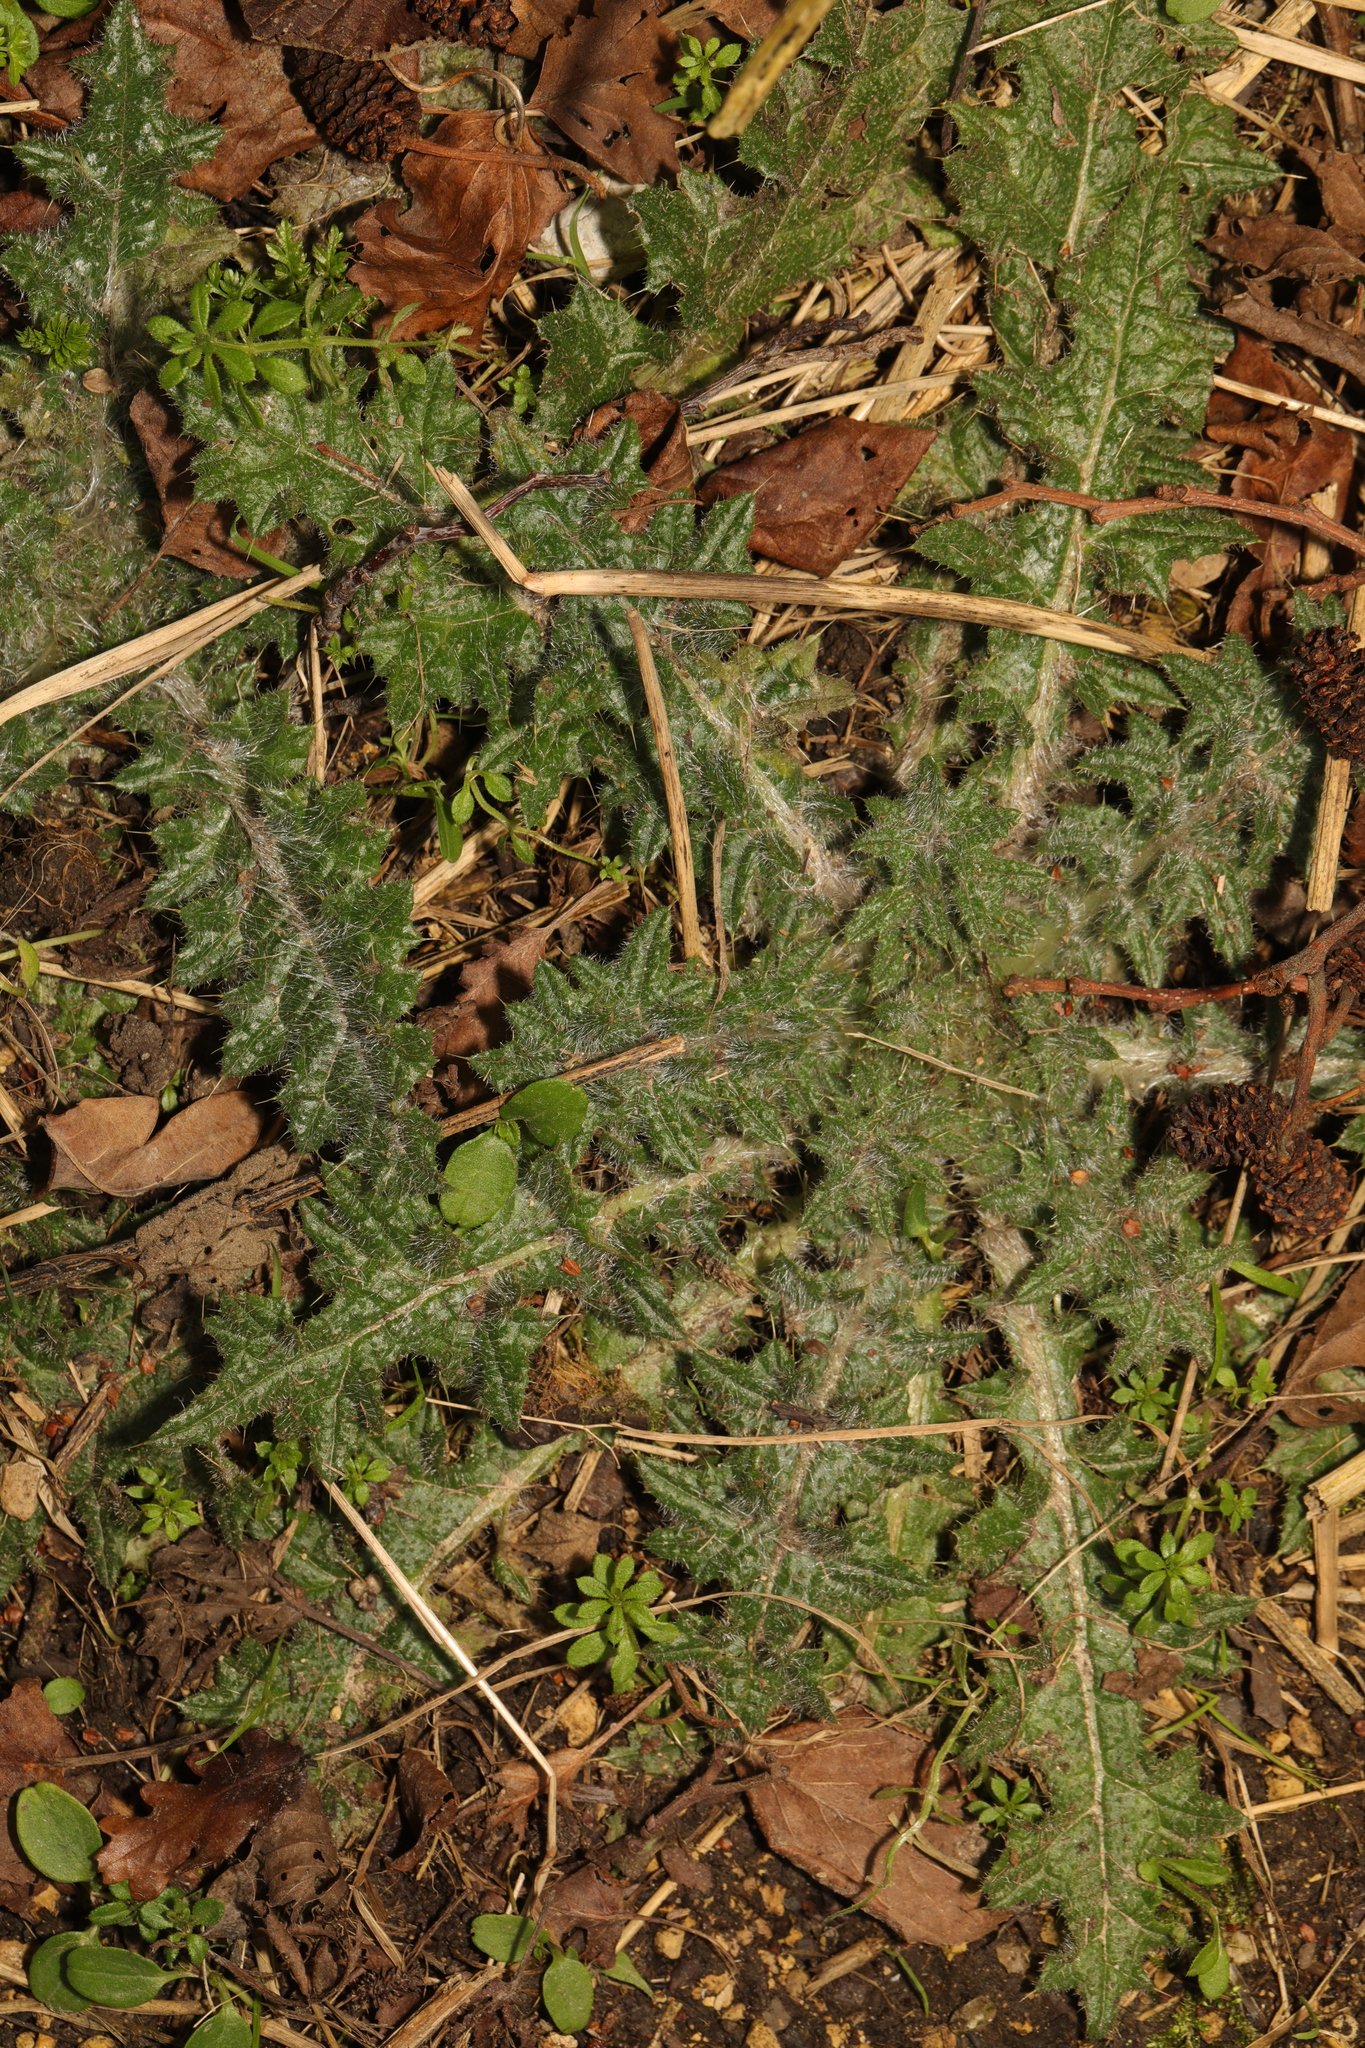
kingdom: Plantae
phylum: Tracheophyta
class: Magnoliopsida
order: Asterales
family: Asteraceae
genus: Cirsium
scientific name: Cirsium vulgare
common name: Bull thistle
